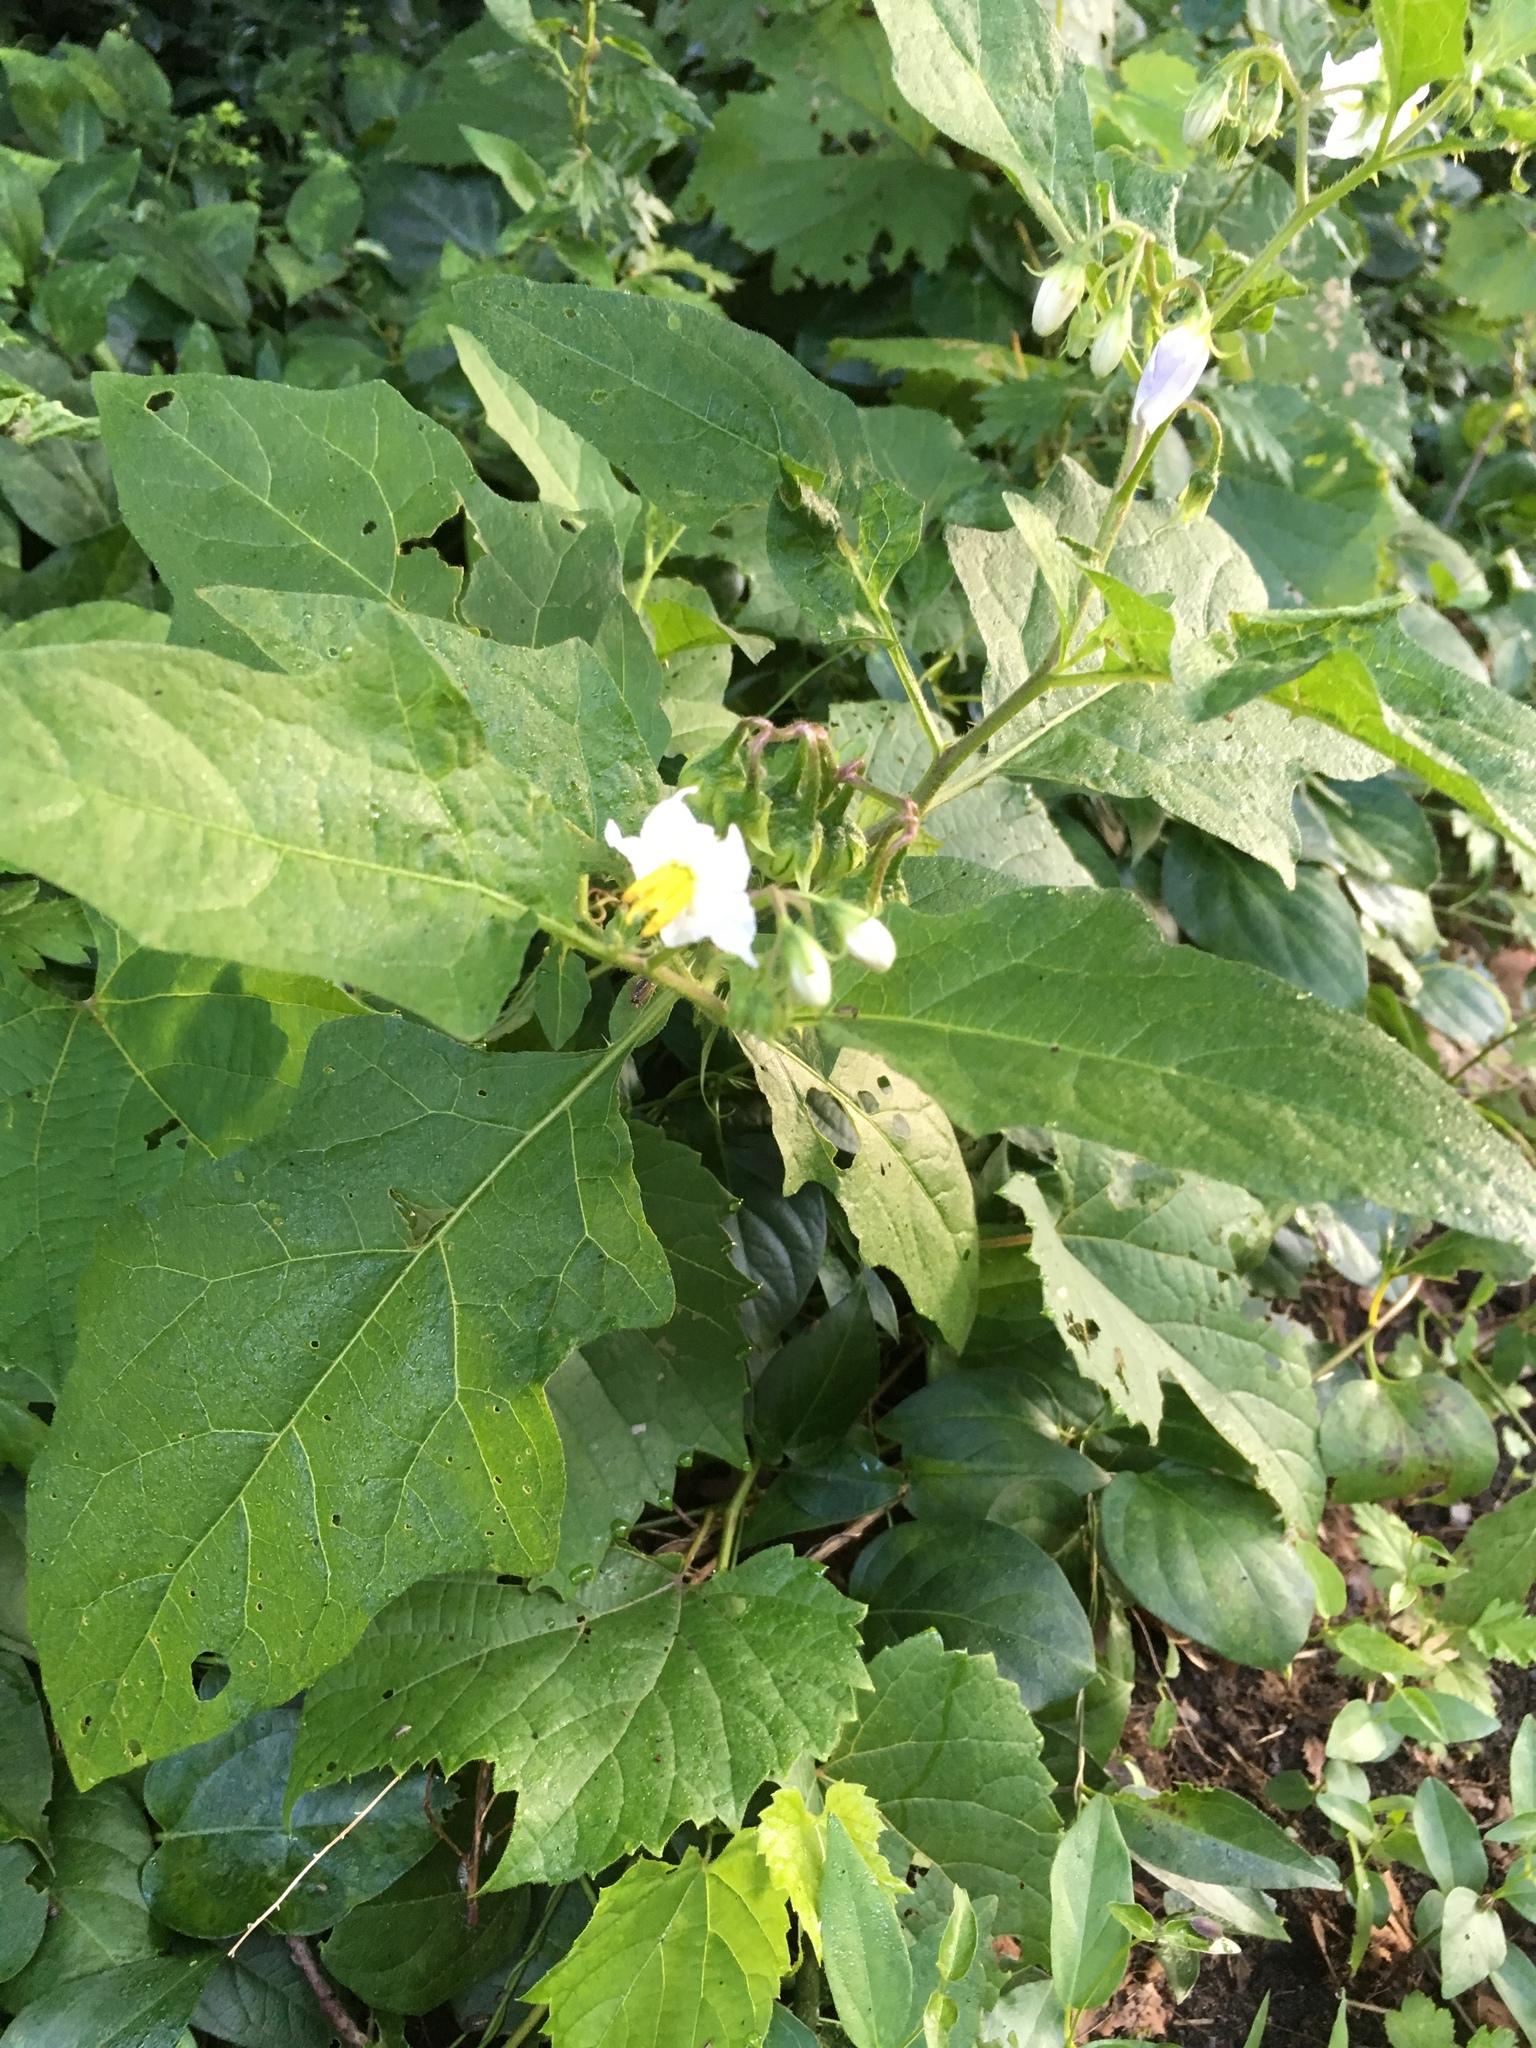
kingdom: Plantae
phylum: Tracheophyta
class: Magnoliopsida
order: Solanales
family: Solanaceae
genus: Solanum
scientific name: Solanum carolinense
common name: Horse-nettle
